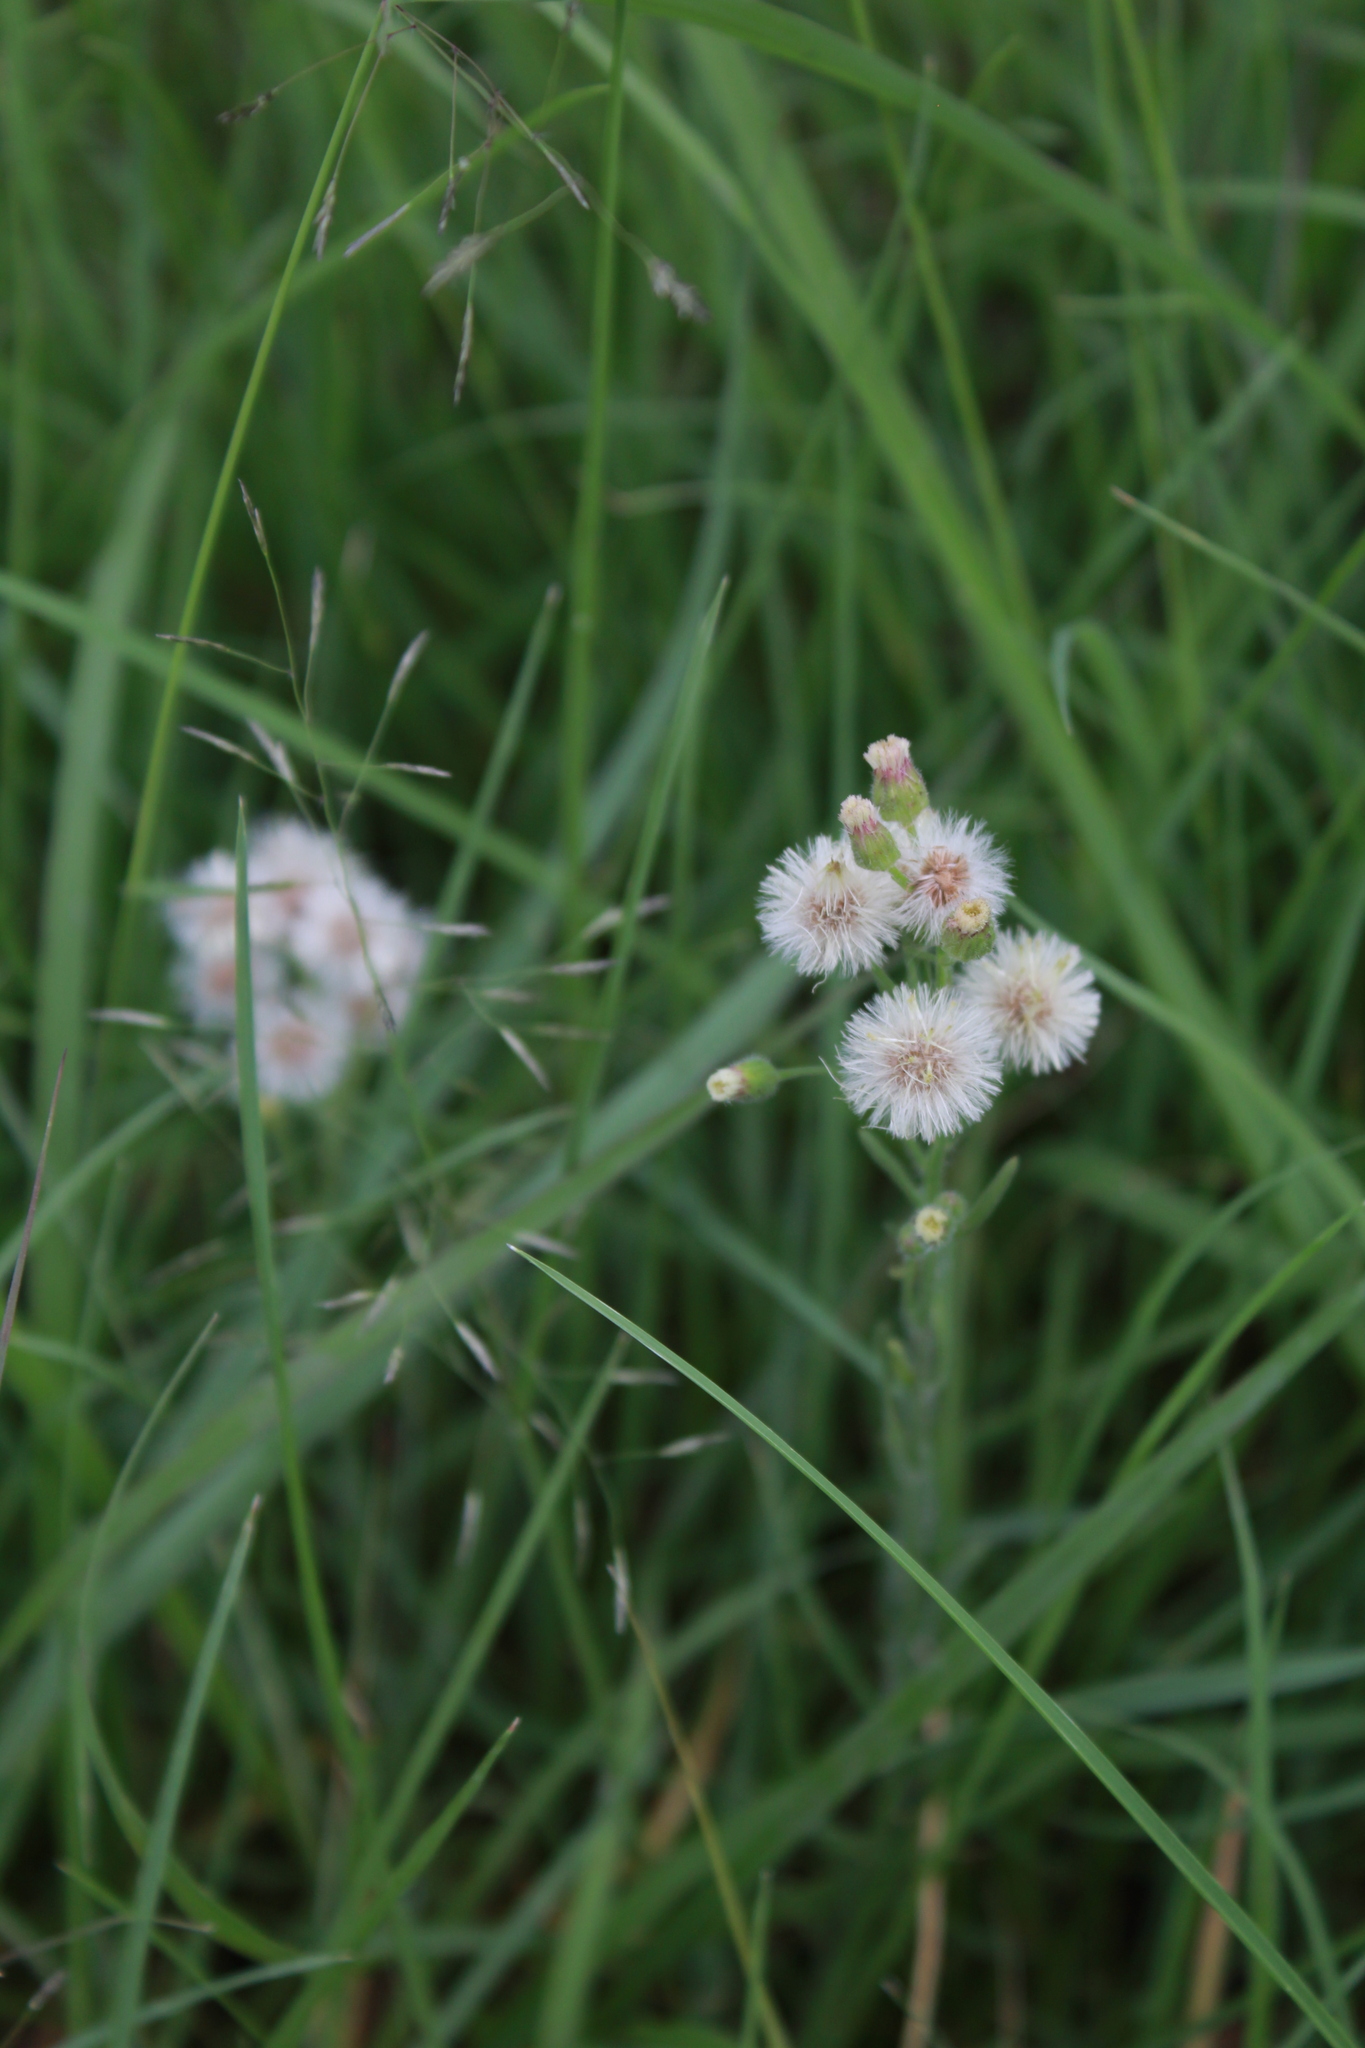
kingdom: Plantae
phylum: Tracheophyta
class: Magnoliopsida
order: Asterales
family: Asteraceae
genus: Erigeron
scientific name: Erigeron bonariensis
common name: Argentine fleabane
